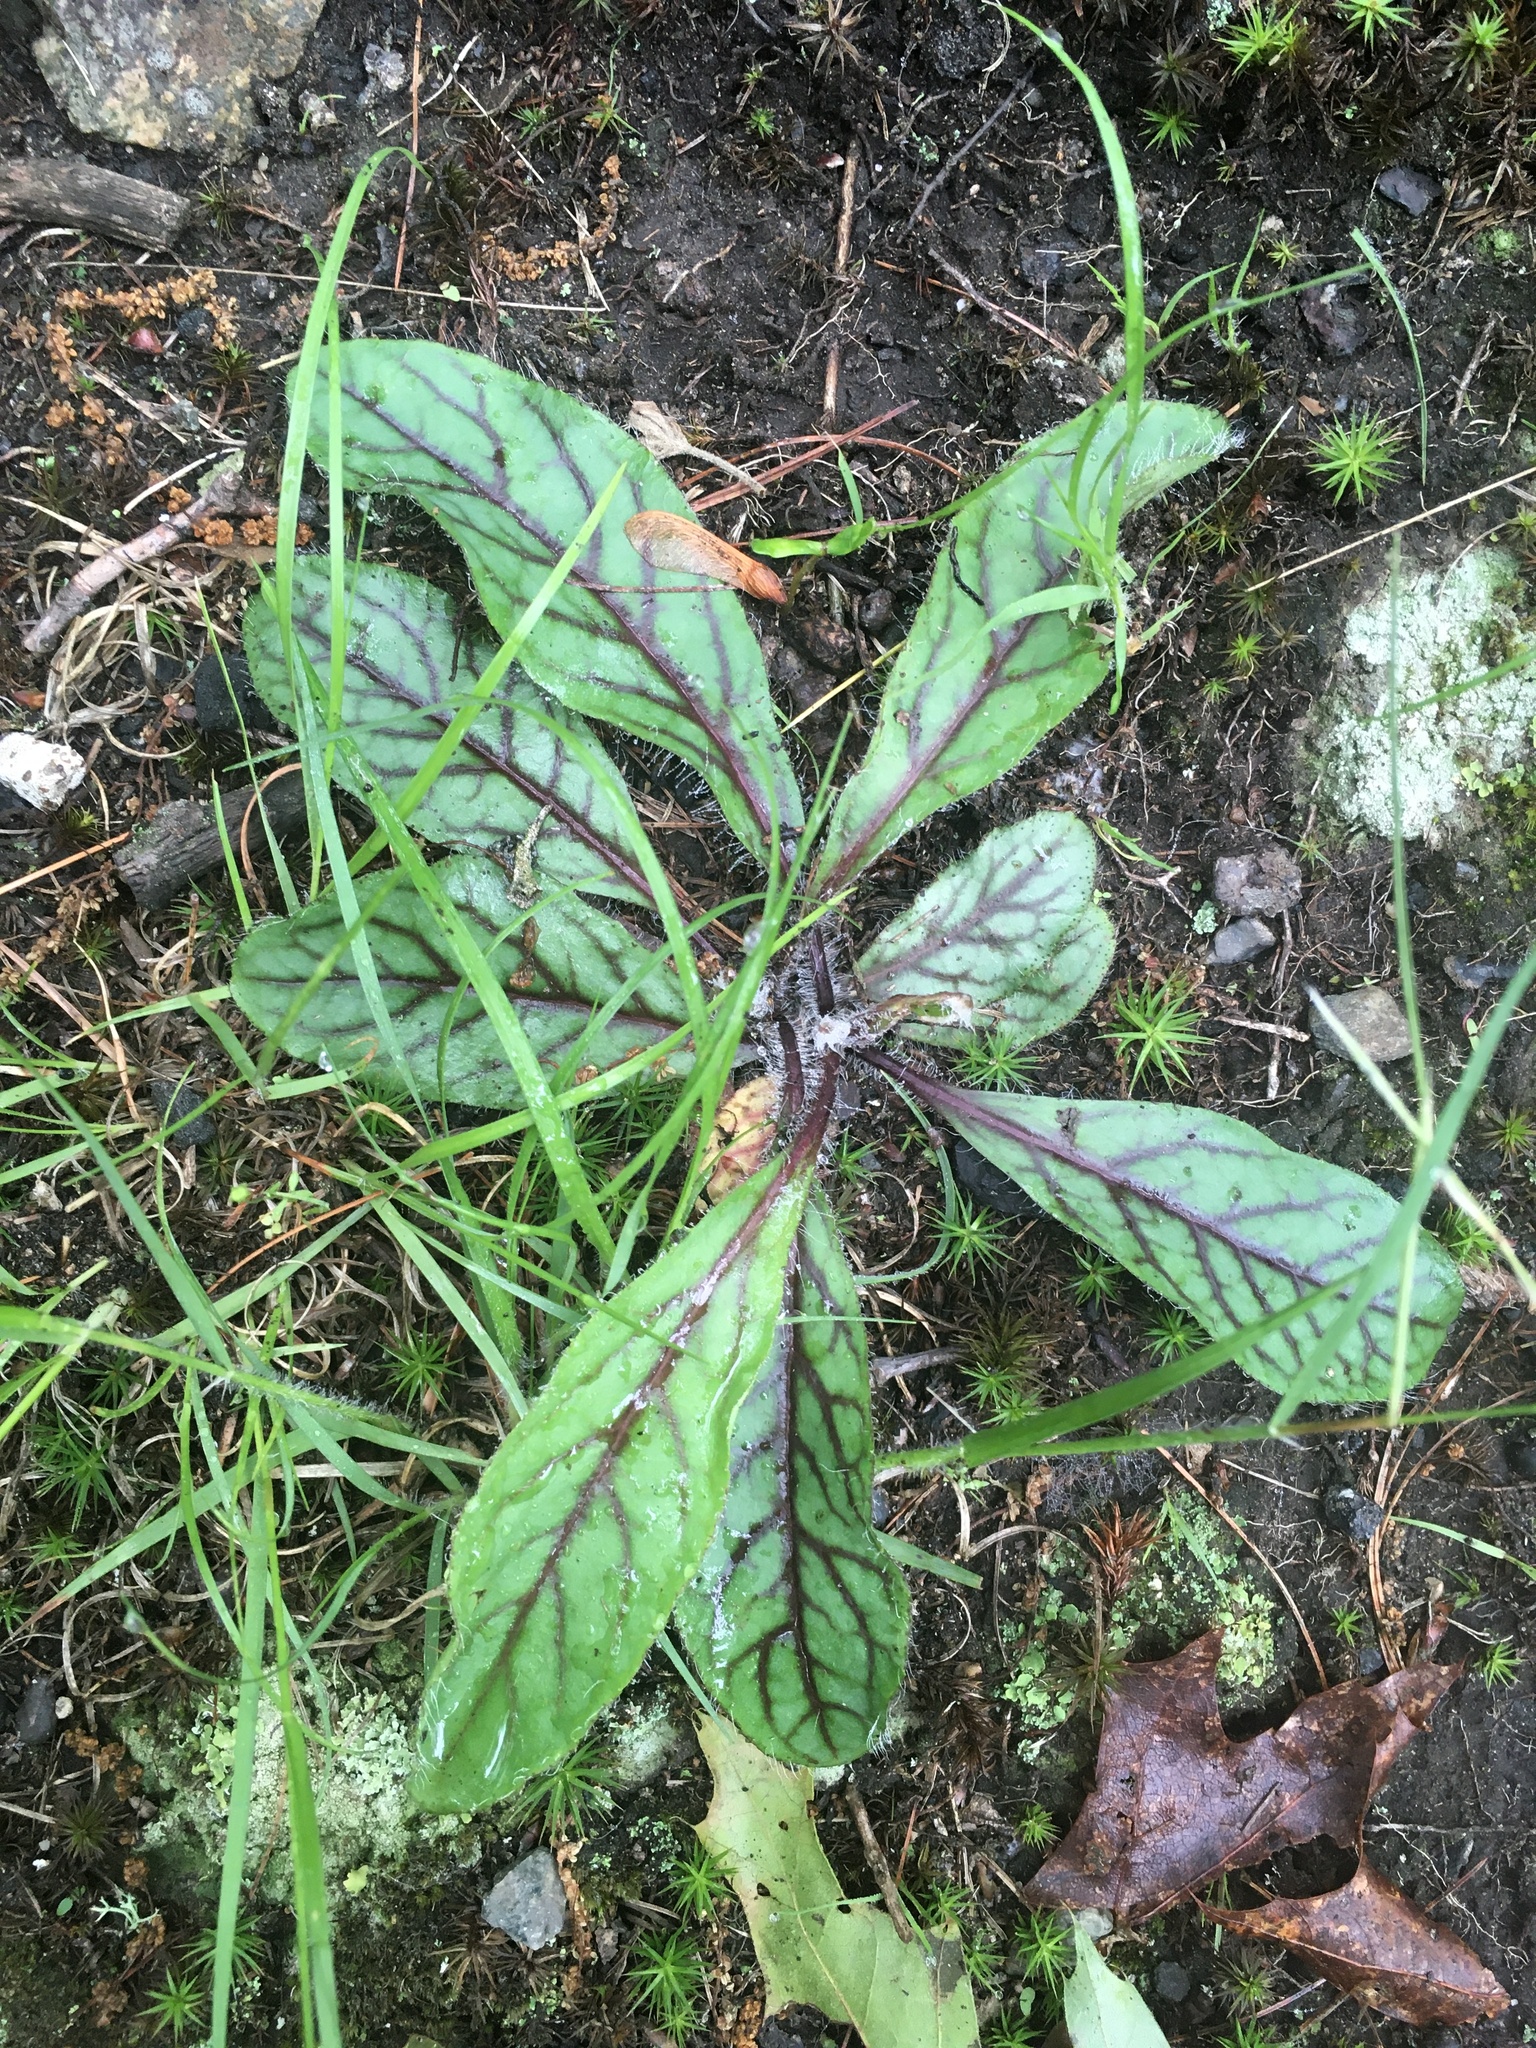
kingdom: Plantae
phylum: Tracheophyta
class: Magnoliopsida
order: Asterales
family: Asteraceae
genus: Hieracium
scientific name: Hieracium venosum
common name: Rattlesnake hawkweed
